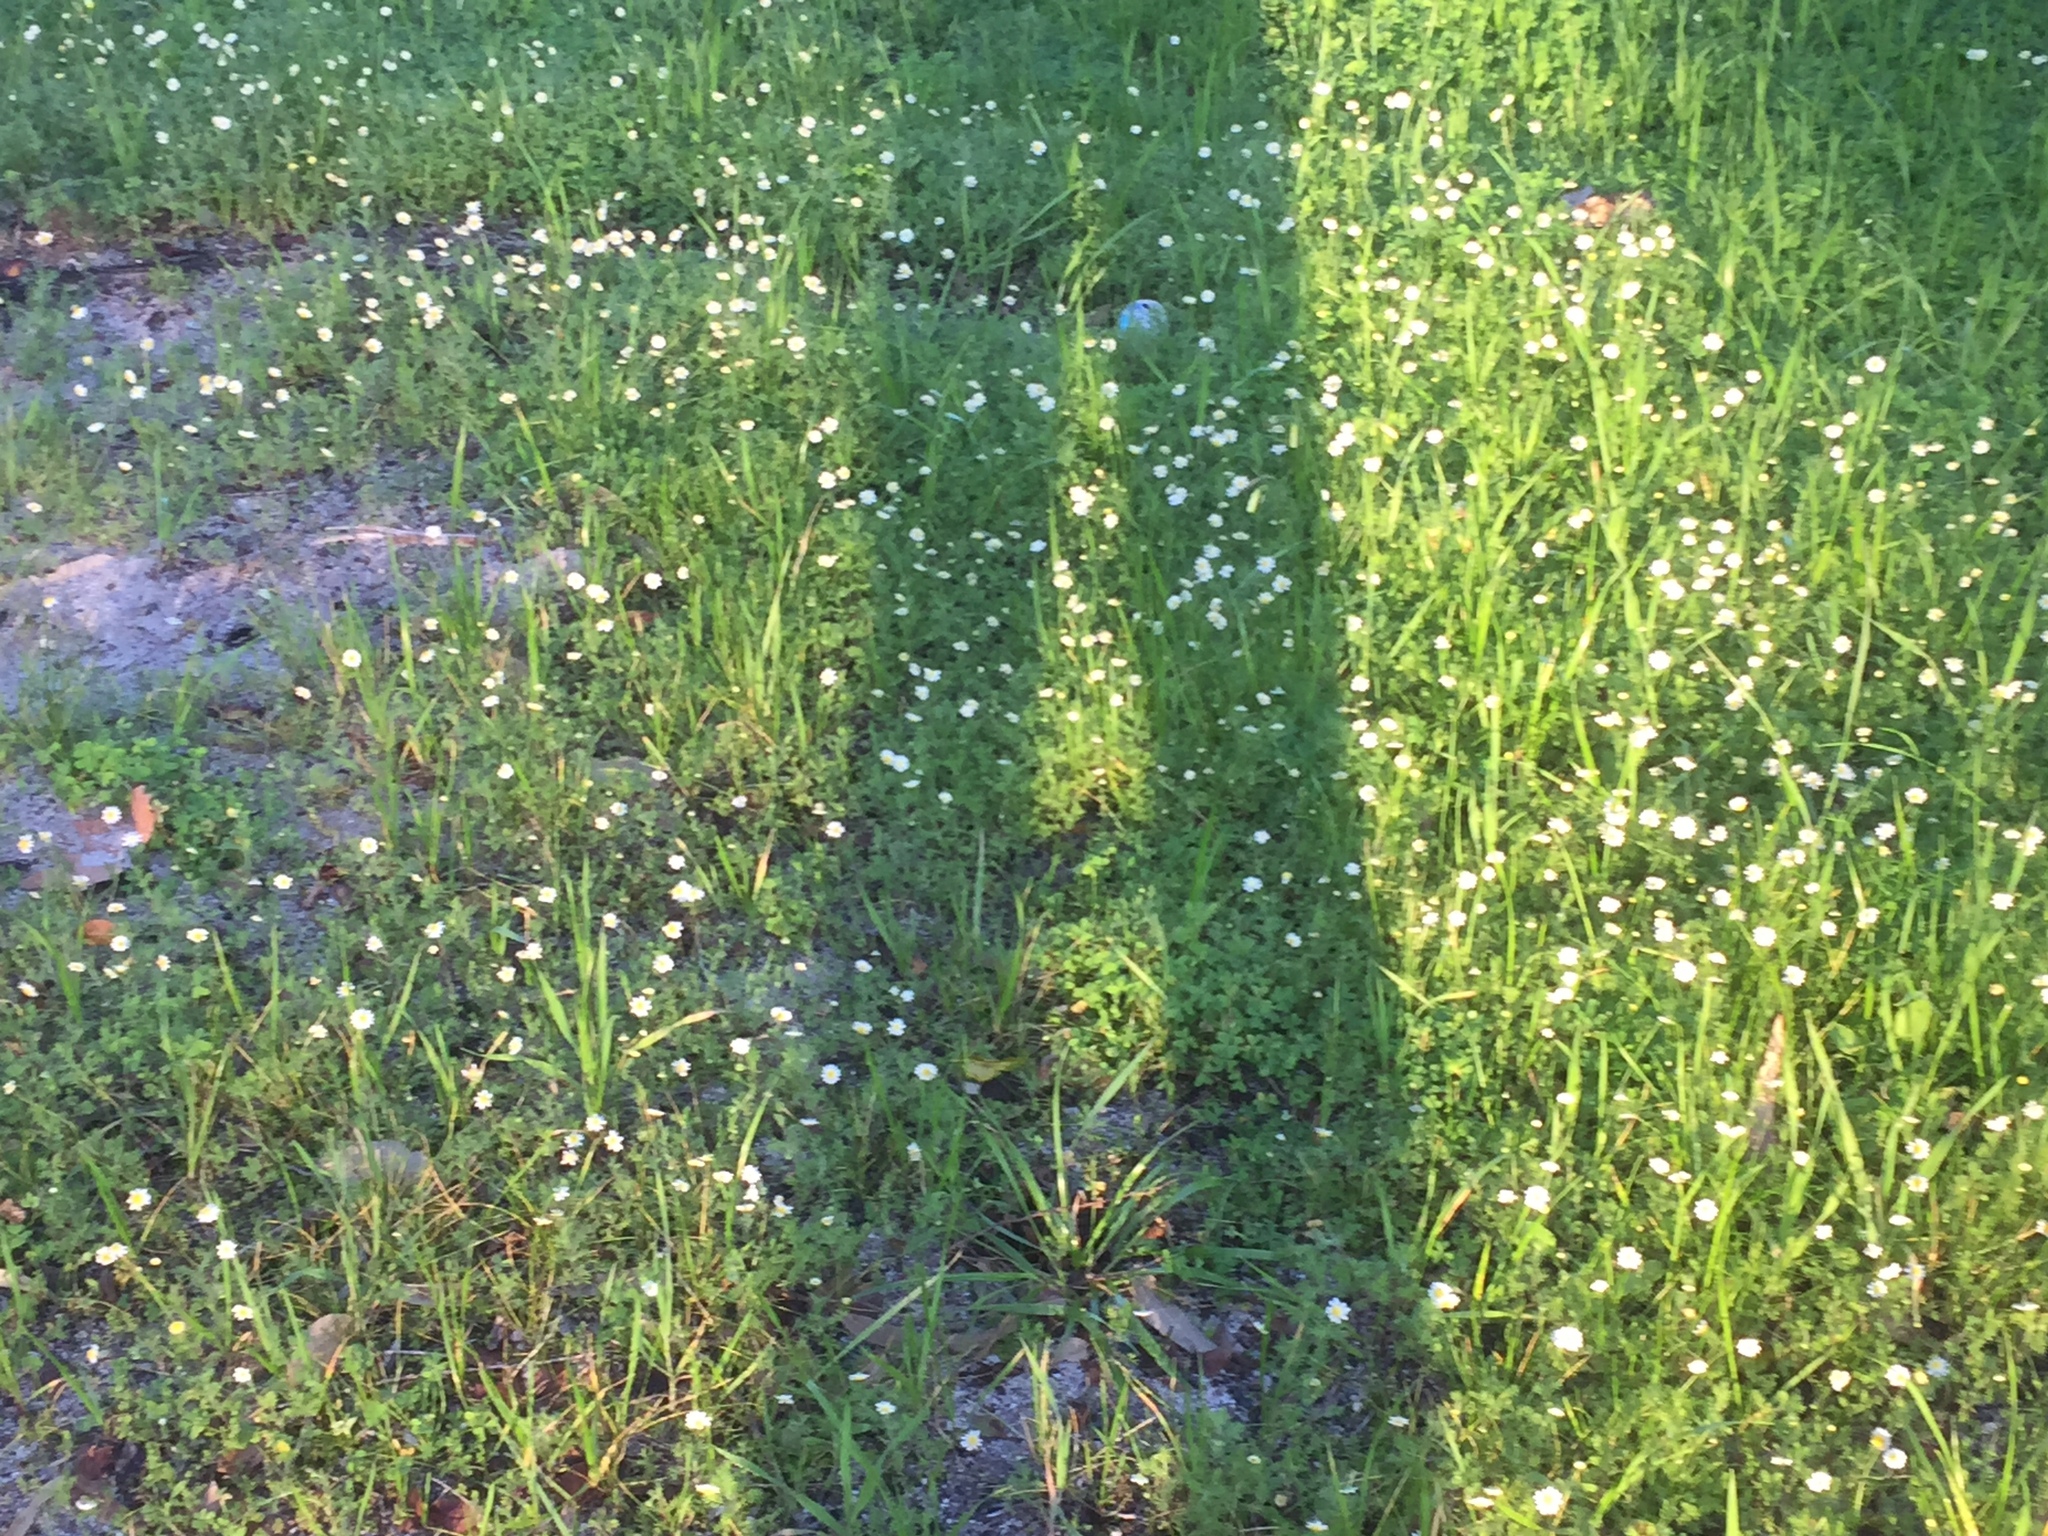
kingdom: Plantae
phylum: Tracheophyta
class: Magnoliopsida
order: Asterales
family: Asteraceae
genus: Cotula
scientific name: Cotula turbinata
